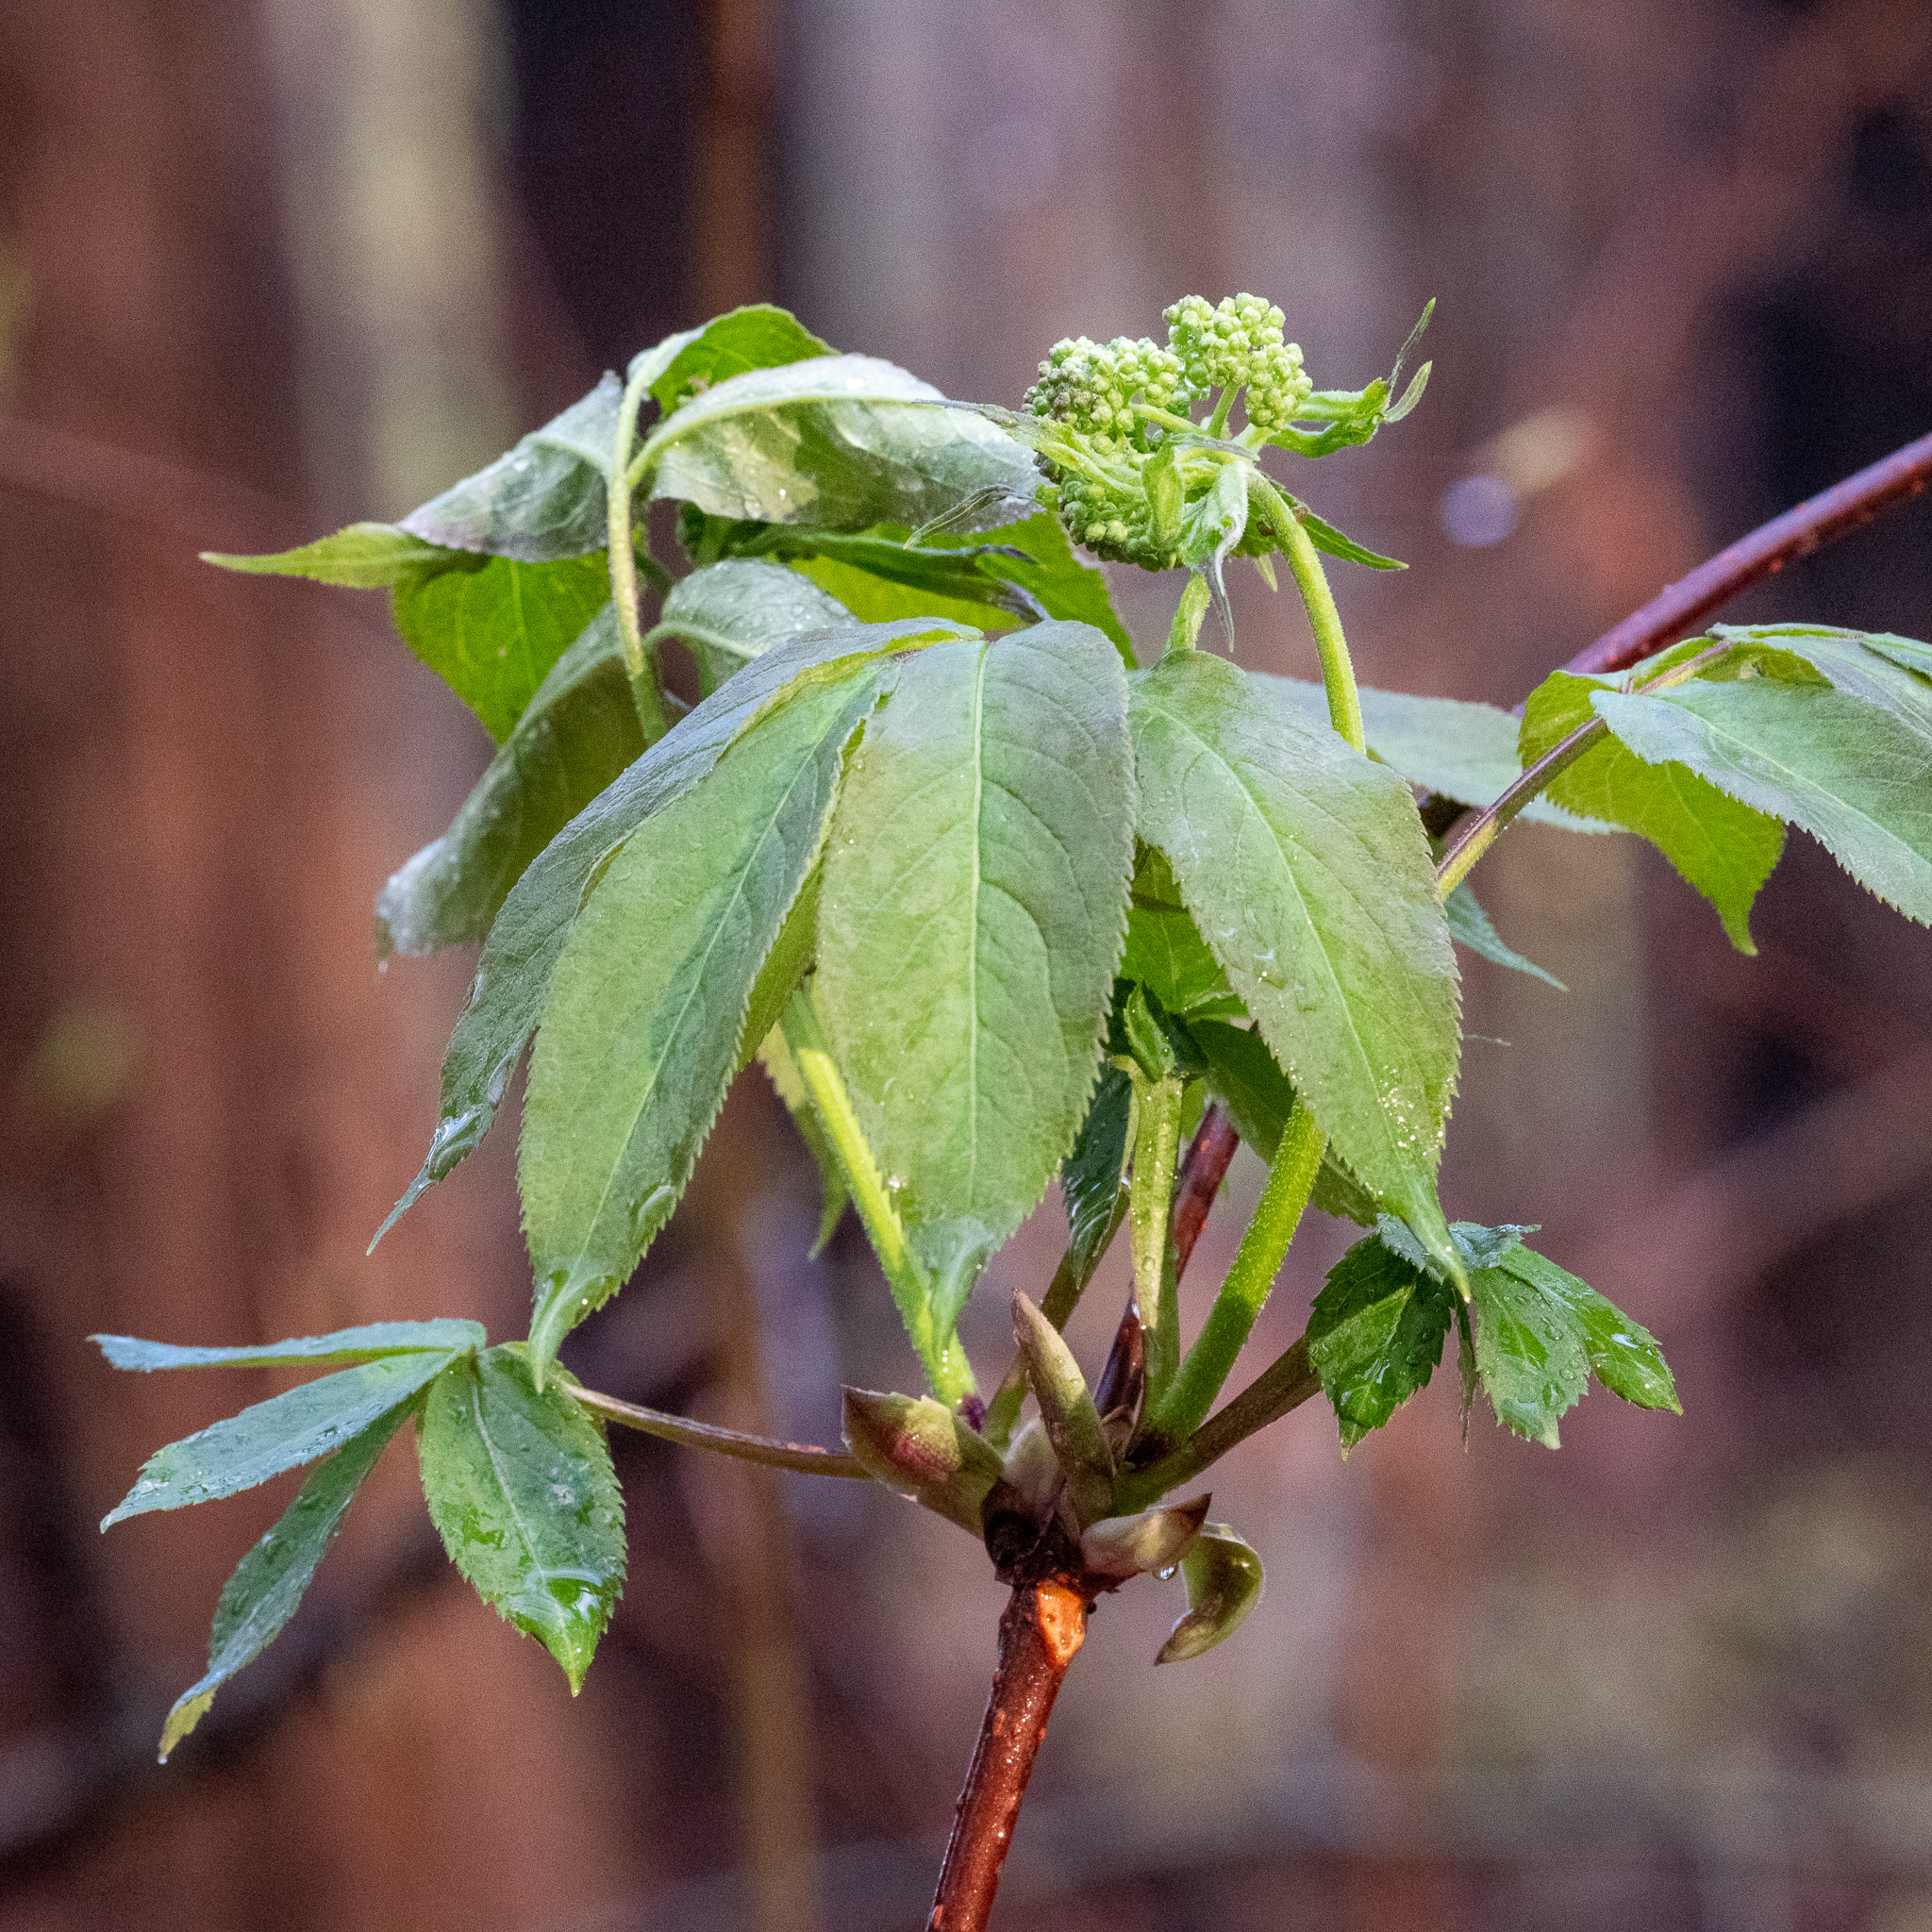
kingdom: Plantae
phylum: Tracheophyta
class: Magnoliopsida
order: Dipsacales
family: Viburnaceae
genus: Sambucus
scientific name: Sambucus racemosa
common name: Red-berried elder
